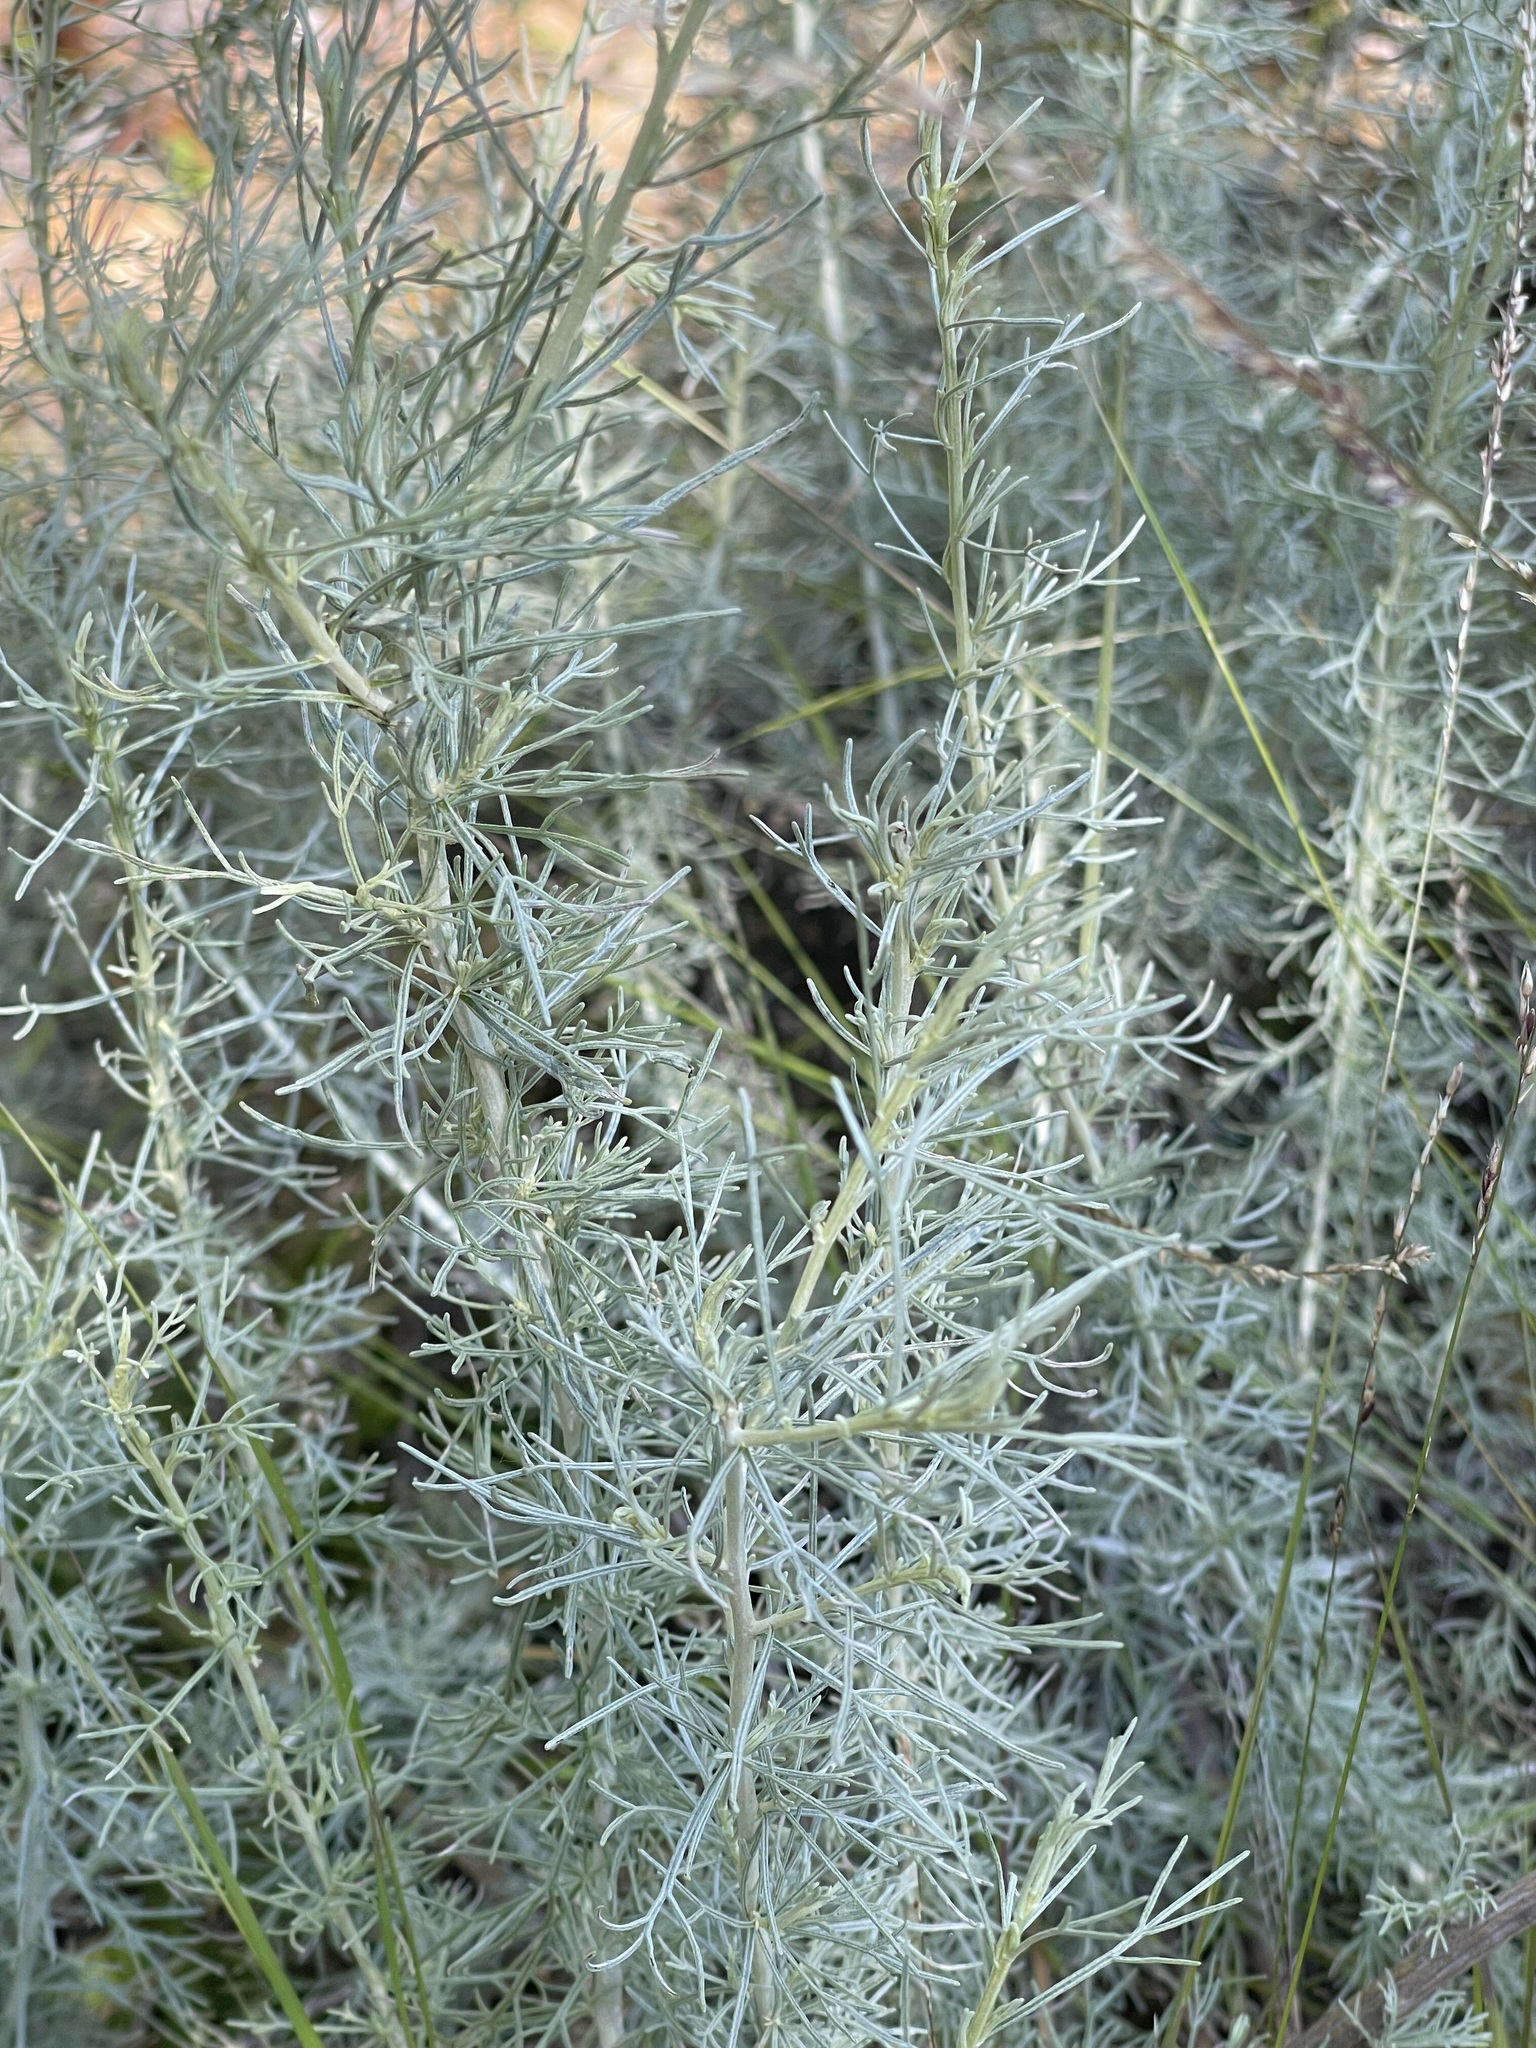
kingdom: Plantae
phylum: Tracheophyta
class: Magnoliopsida
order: Asterales
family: Asteraceae
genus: Artemisia
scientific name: Artemisia californica
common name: California sagebrush
